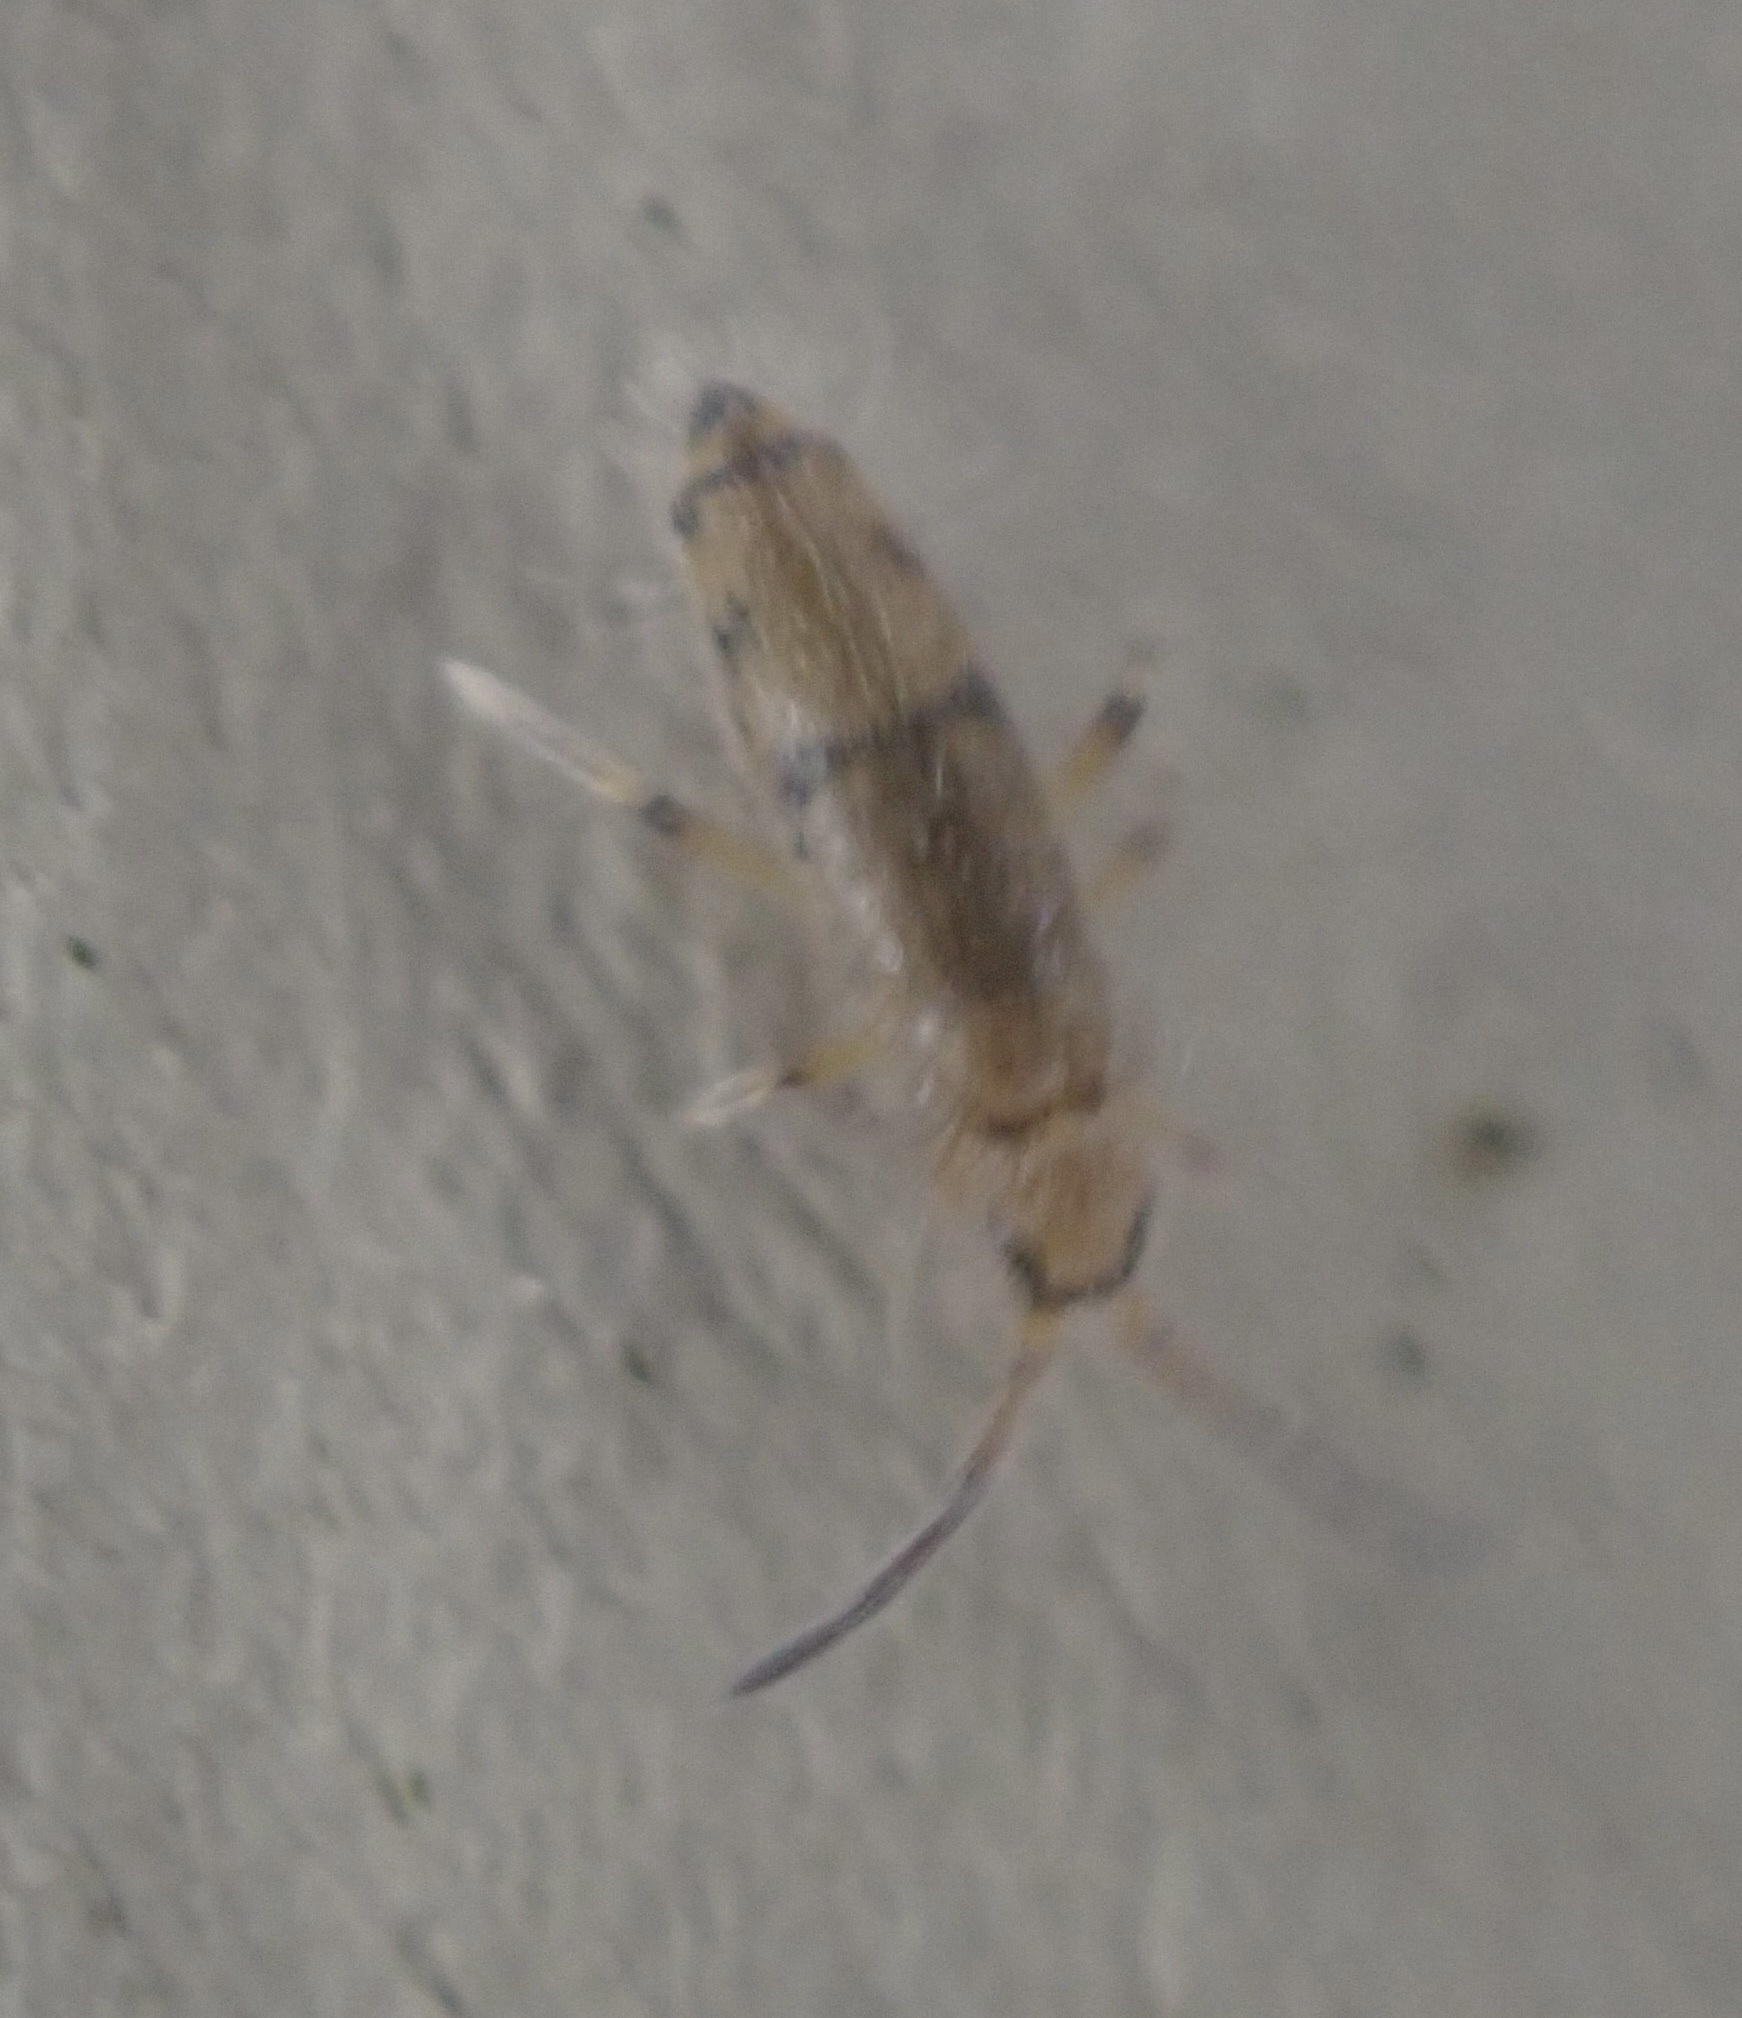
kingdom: Animalia
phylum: Arthropoda
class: Collembola
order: Entomobryomorpha
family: Entomobryidae
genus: Willowsia
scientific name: Willowsia nigromaculata
